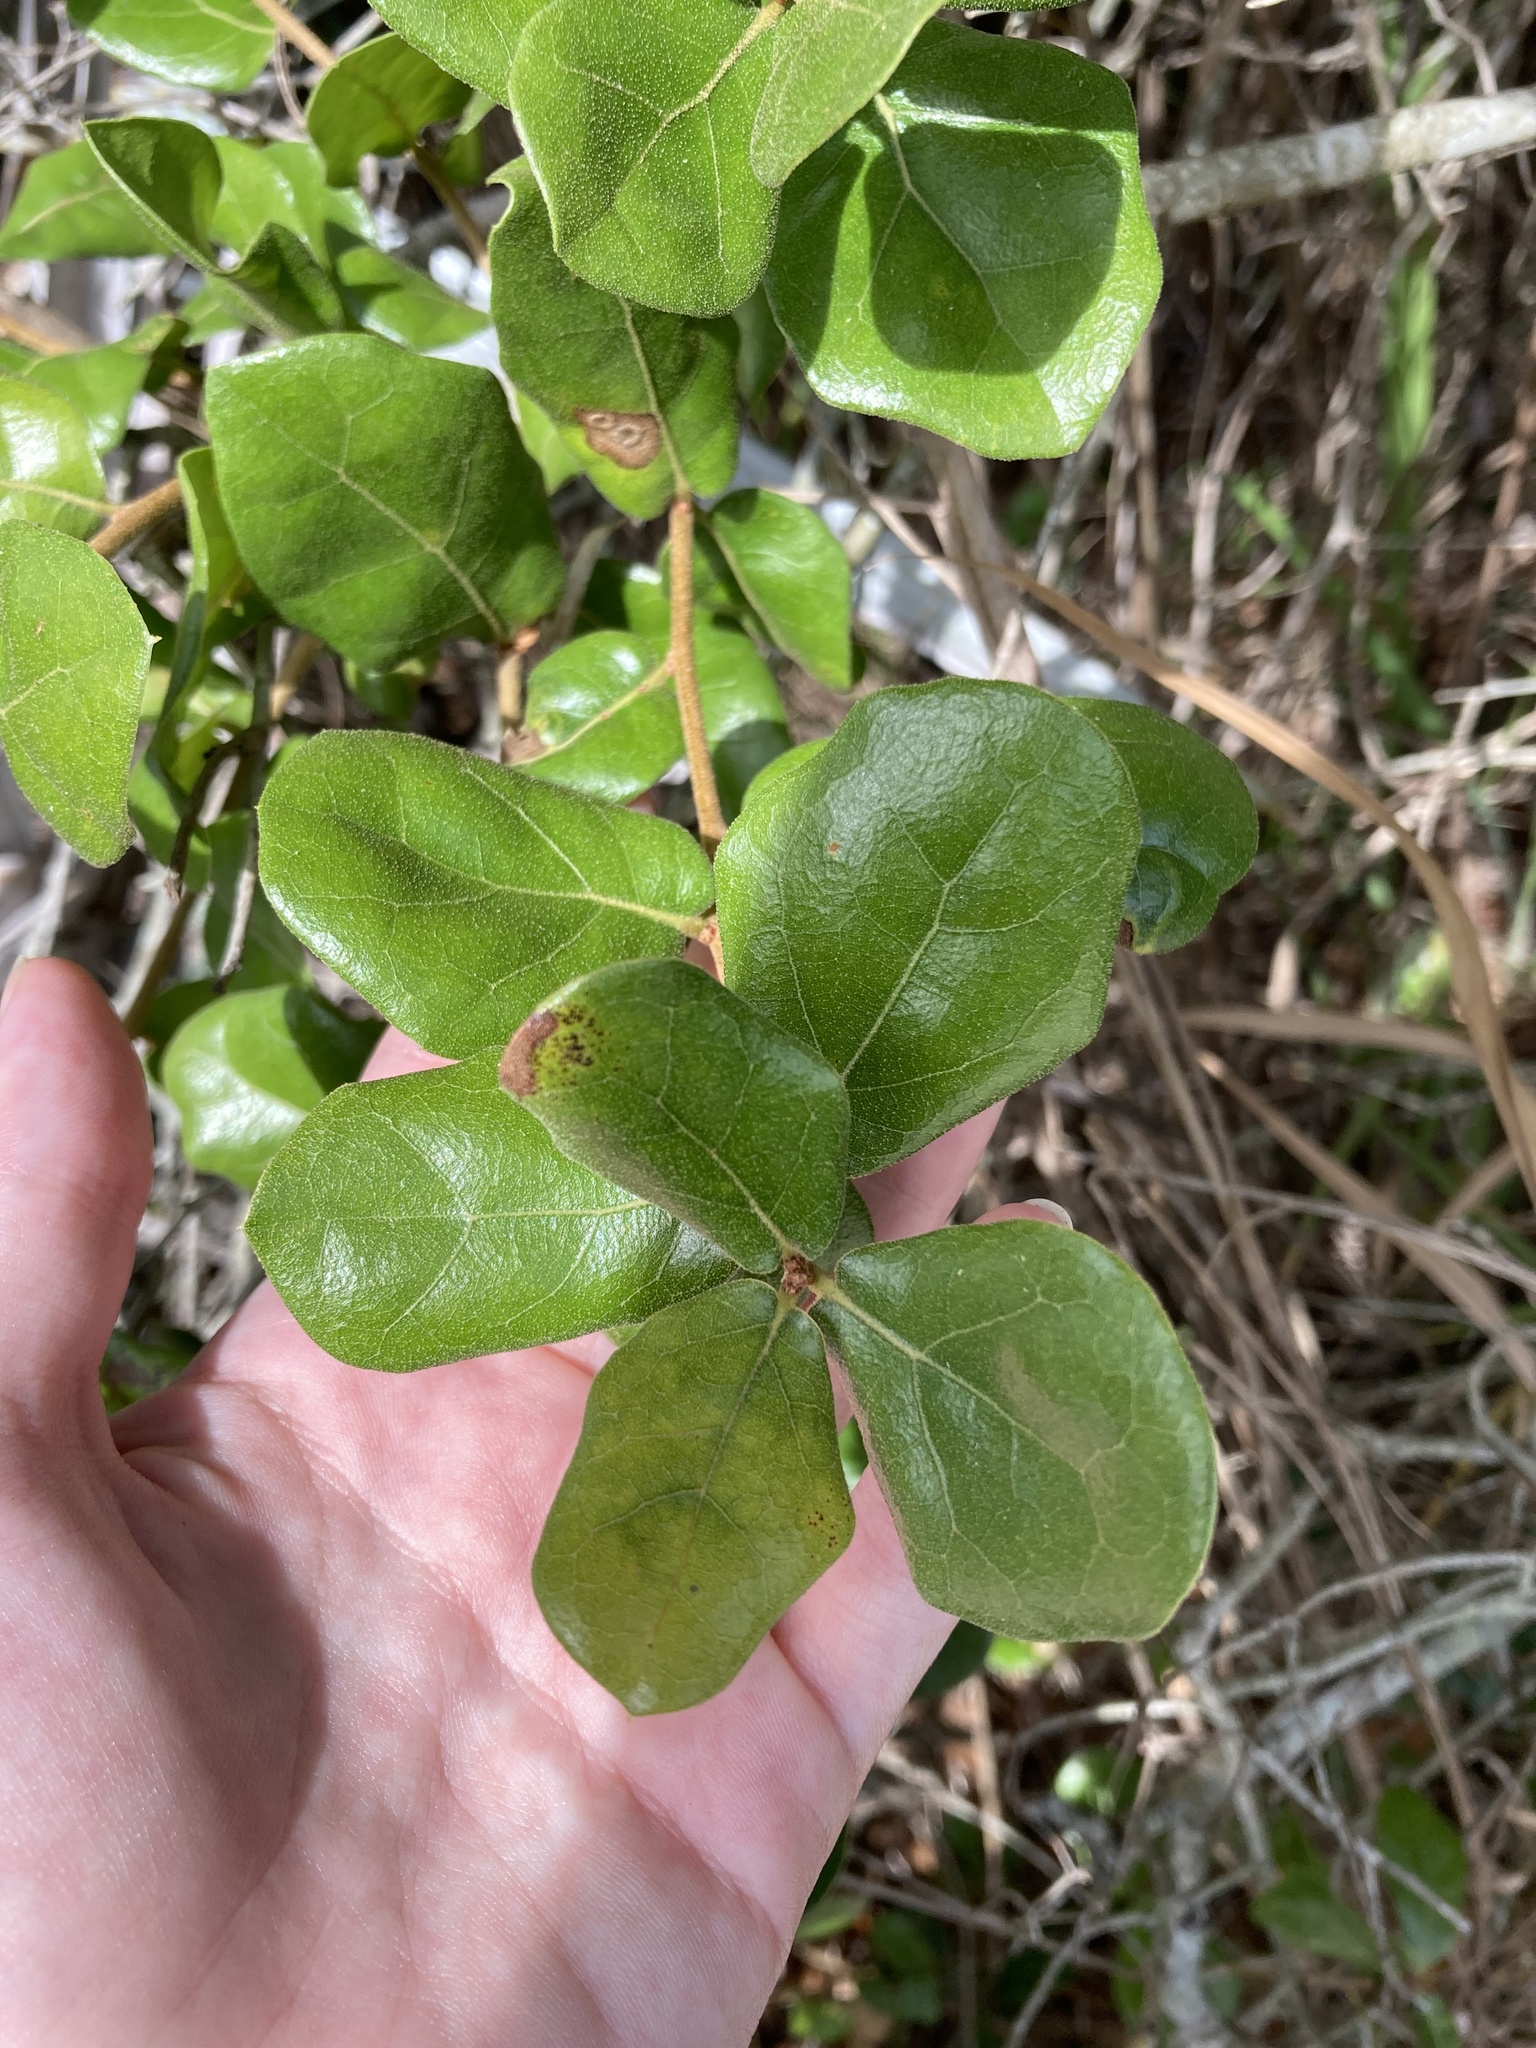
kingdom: Plantae
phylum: Tracheophyta
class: Magnoliopsida
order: Fagales
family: Fagaceae
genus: Quercus
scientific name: Quercus myrtifolia
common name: Myrtle oak
